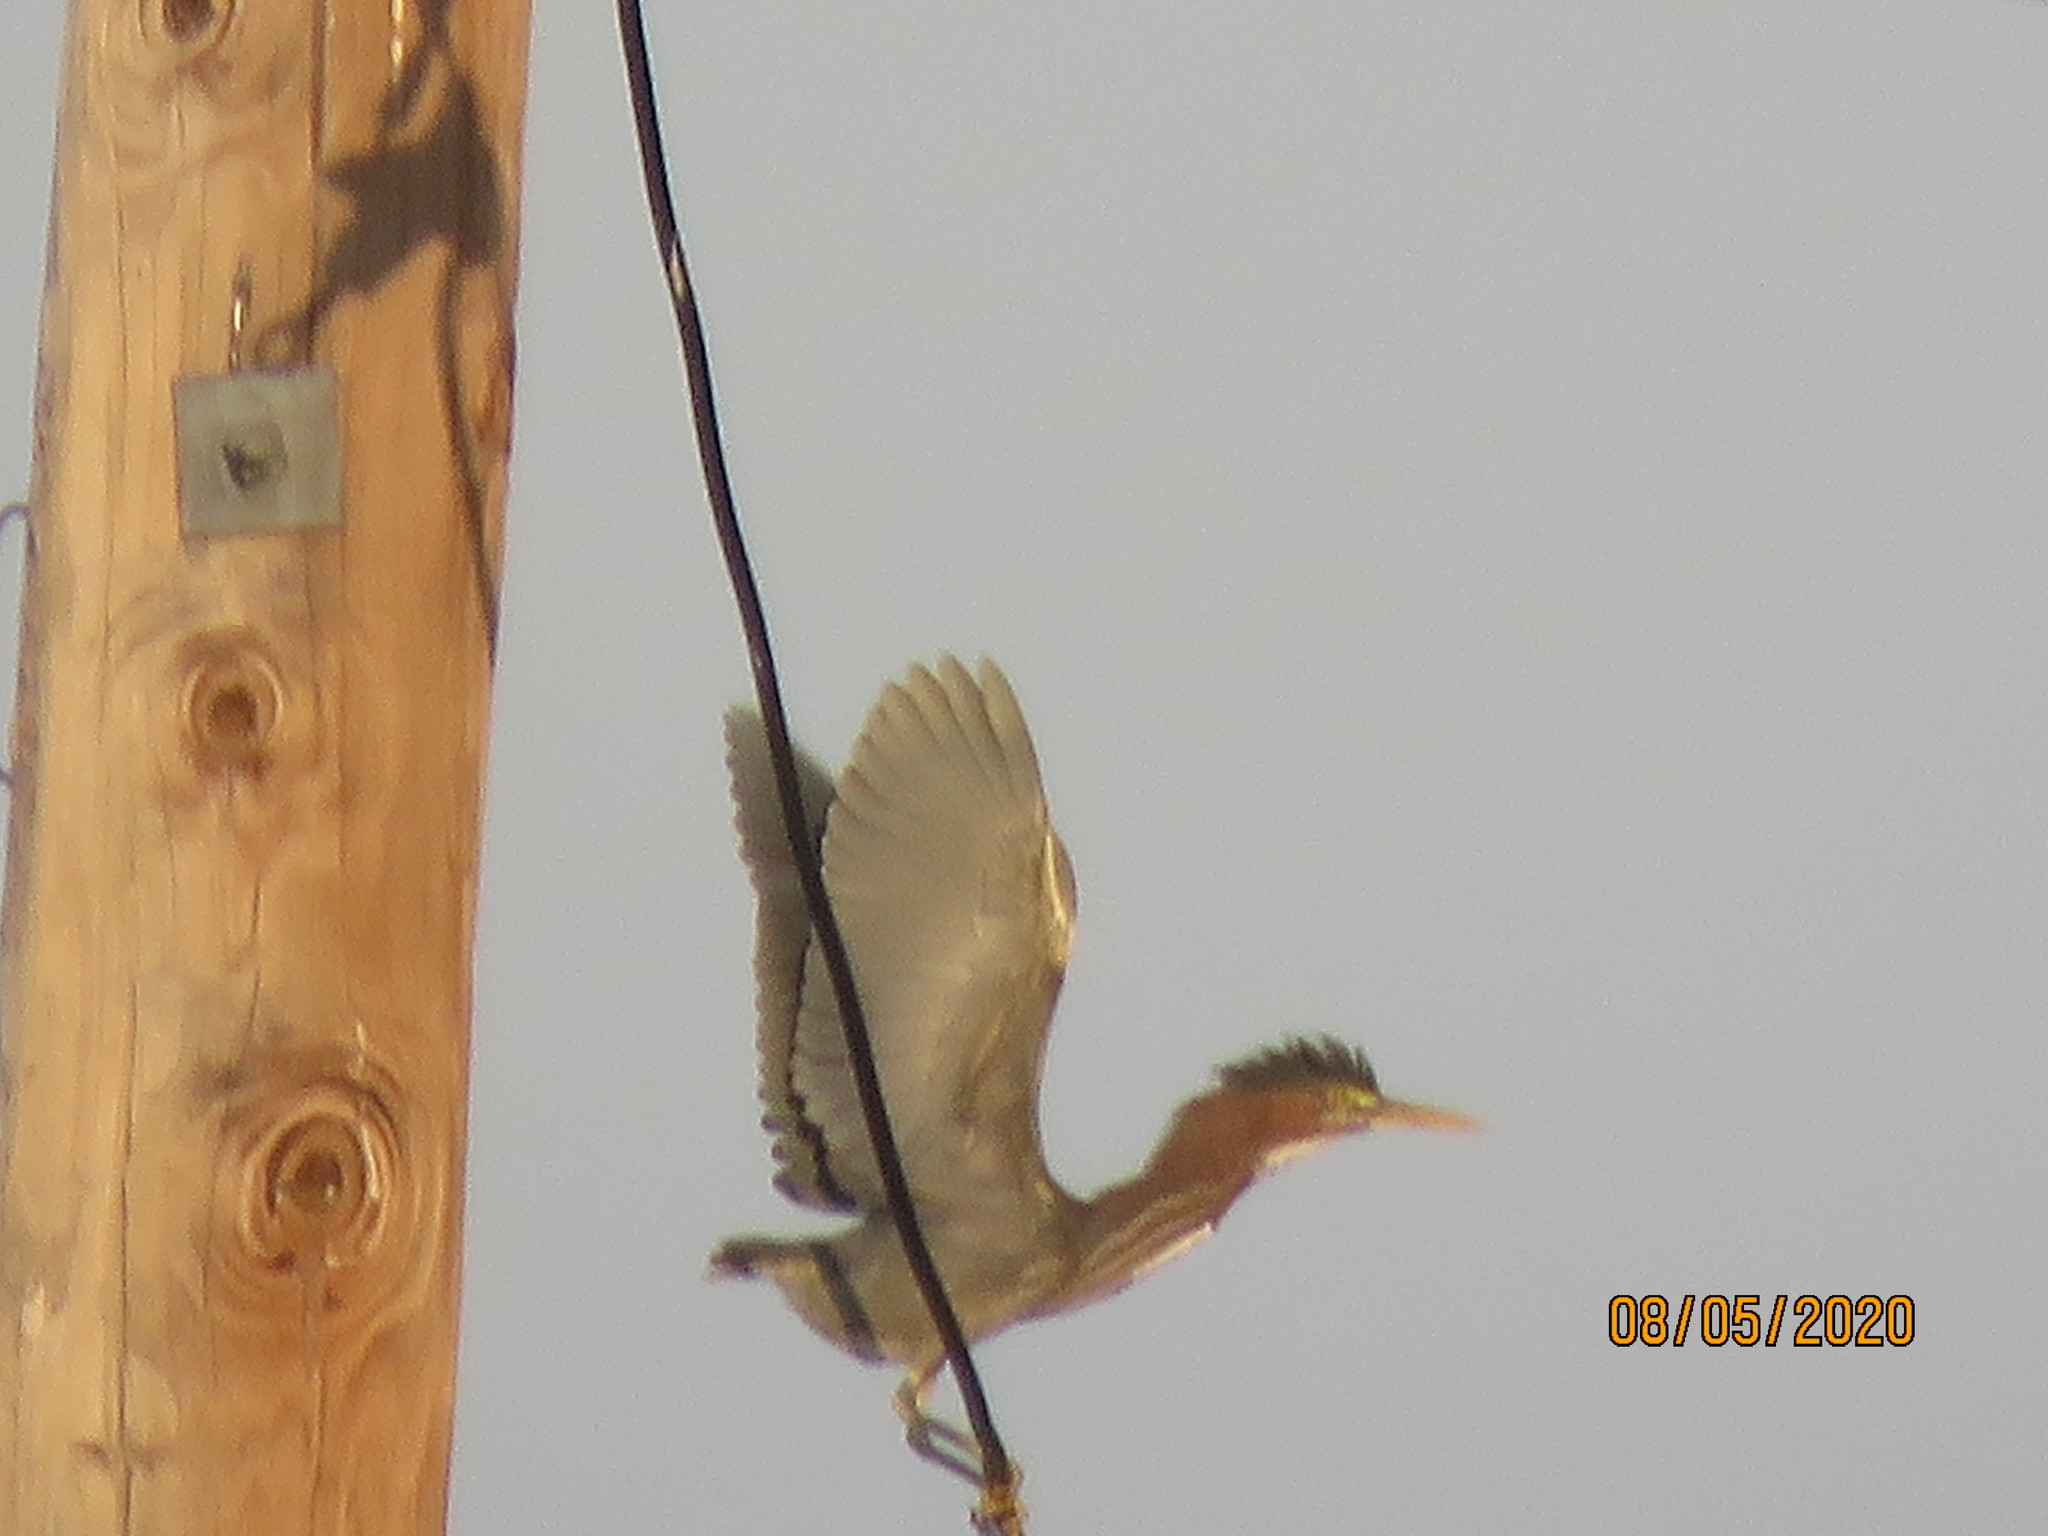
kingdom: Animalia
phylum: Chordata
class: Aves
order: Pelecaniformes
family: Ardeidae
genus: Butorides
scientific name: Butorides virescens
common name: Green heron
